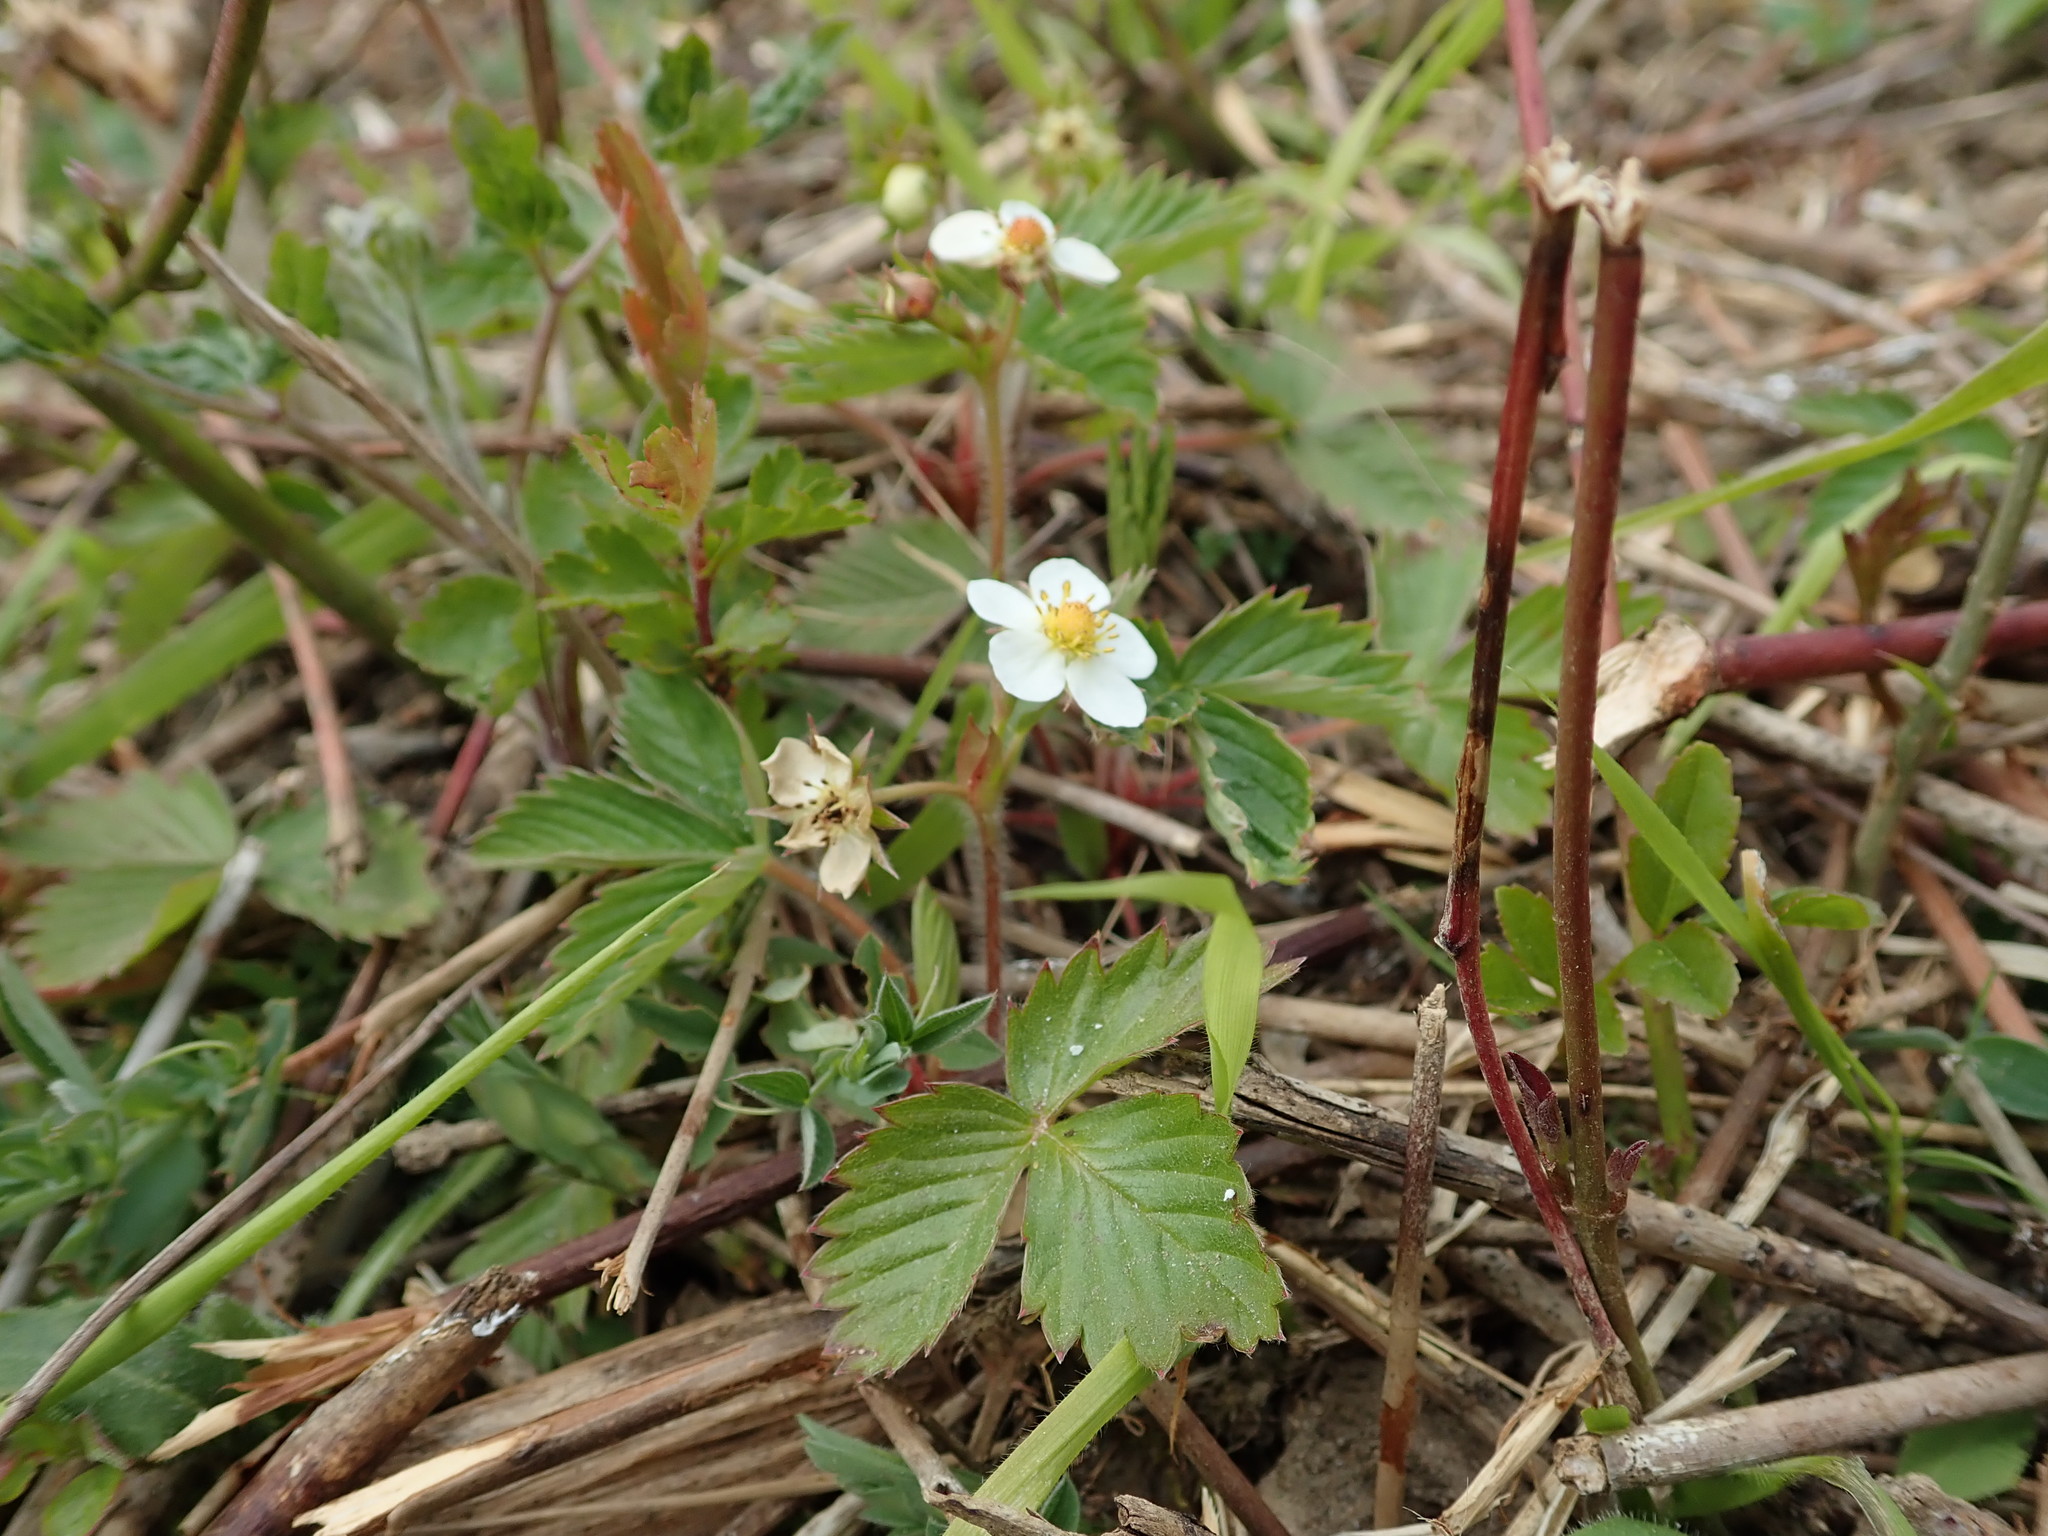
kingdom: Plantae
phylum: Tracheophyta
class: Magnoliopsida
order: Rosales
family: Rosaceae
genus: Fragaria
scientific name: Fragaria vesca
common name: Wild strawberry
